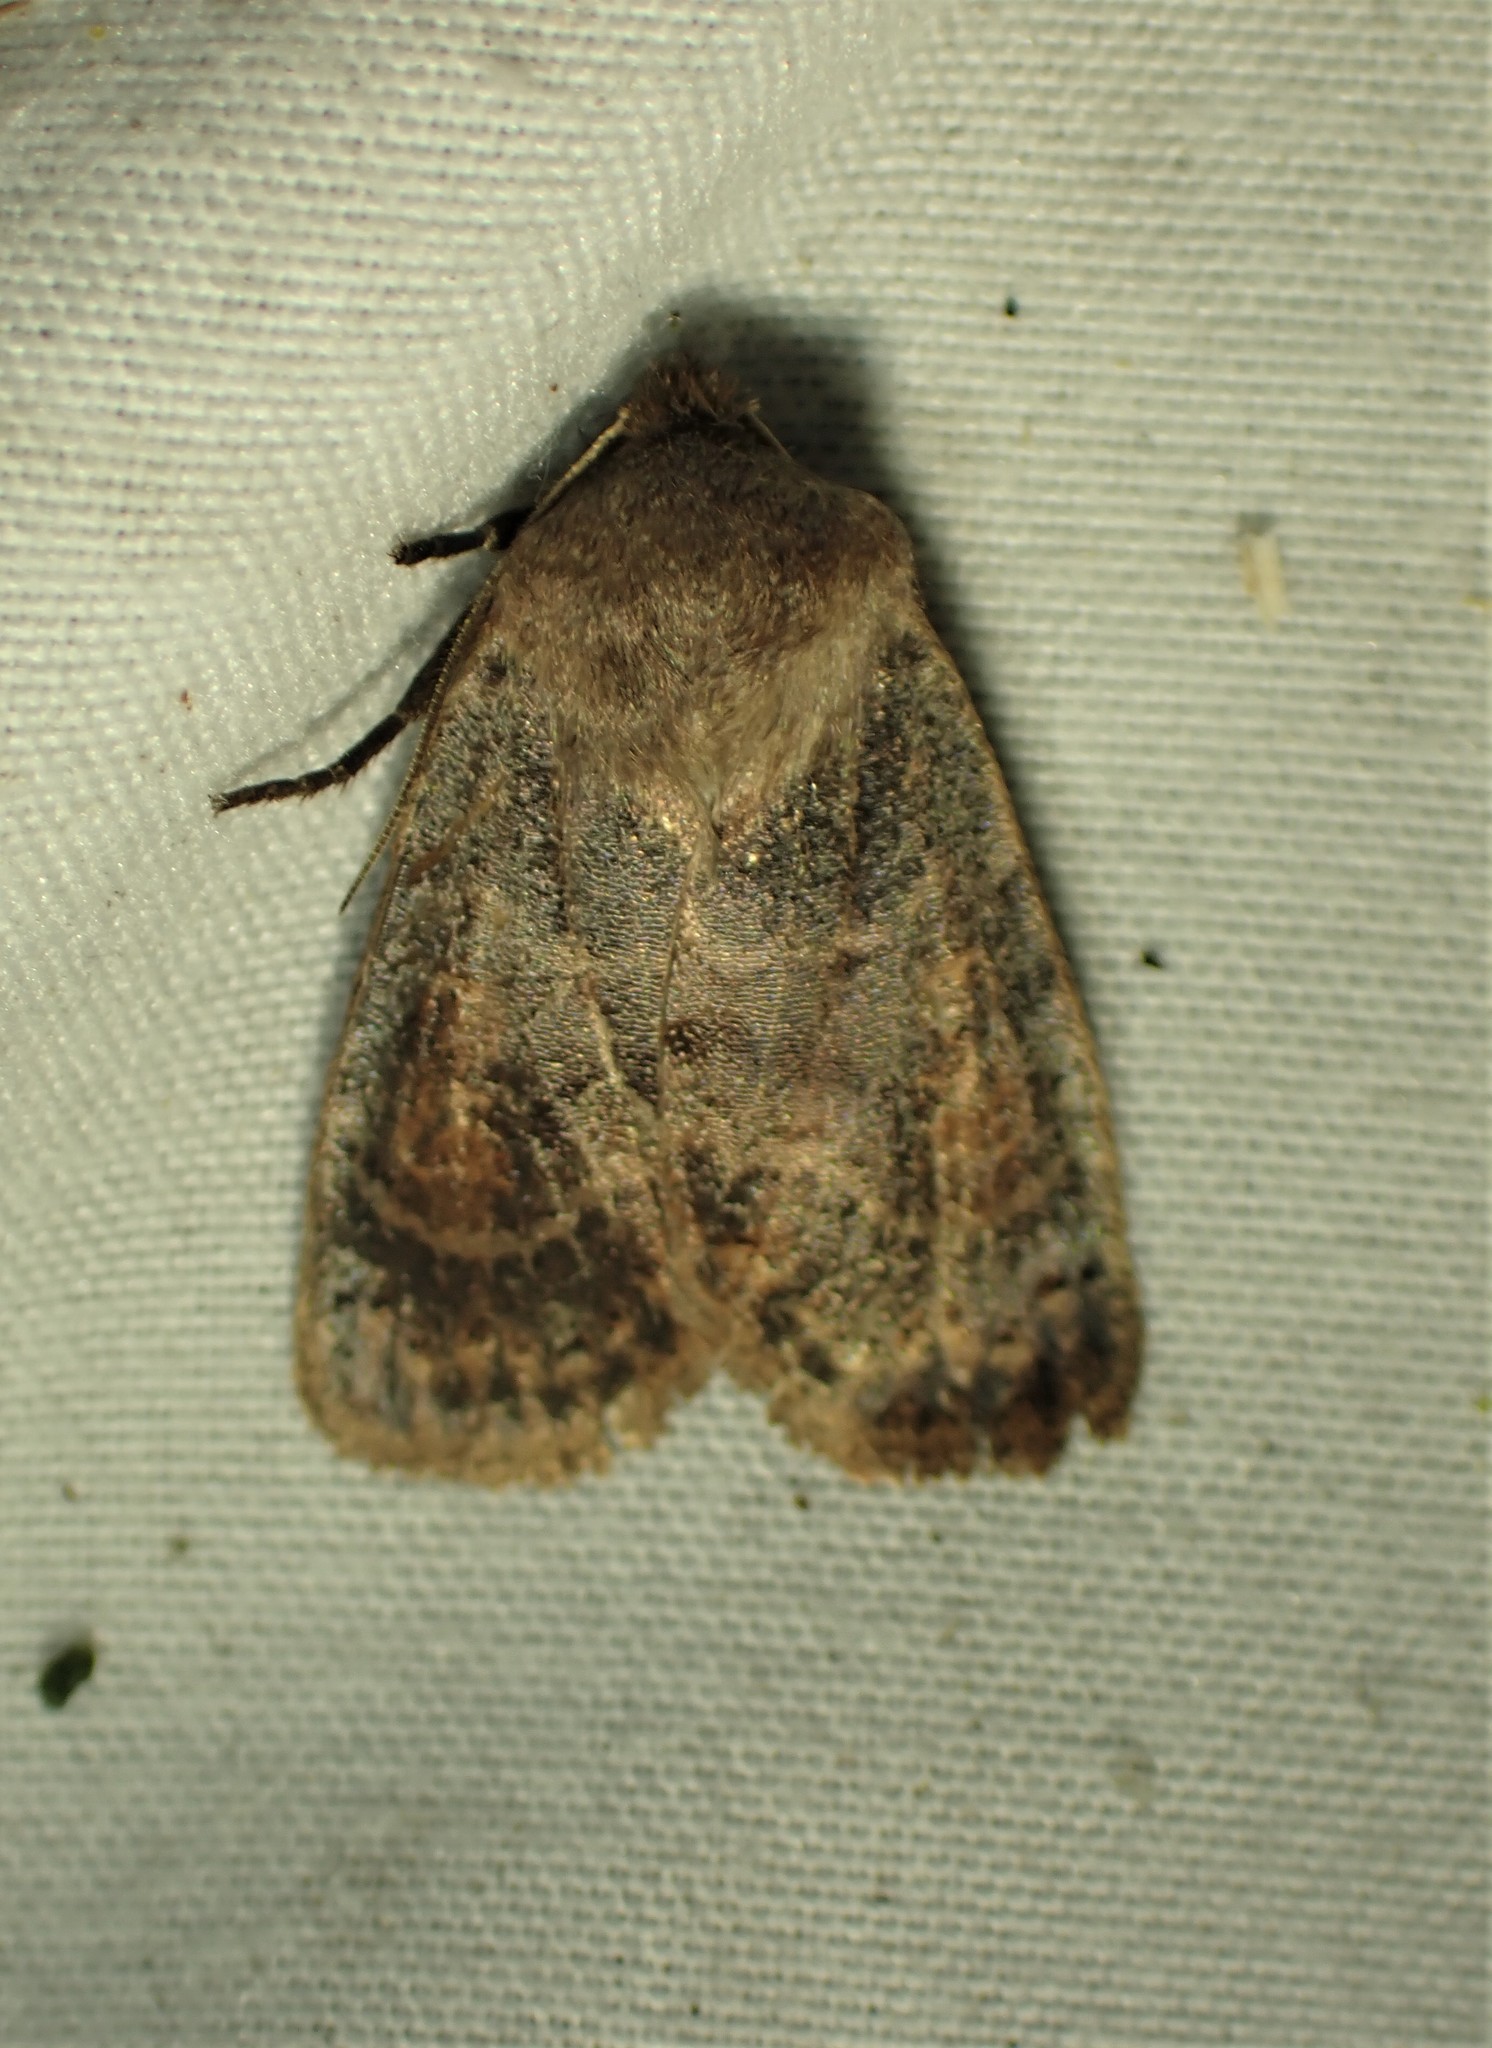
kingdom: Animalia
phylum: Arthropoda
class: Insecta
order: Lepidoptera
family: Noctuidae
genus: Homoglaea
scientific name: Homoglaea hircina
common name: Goat sallow
